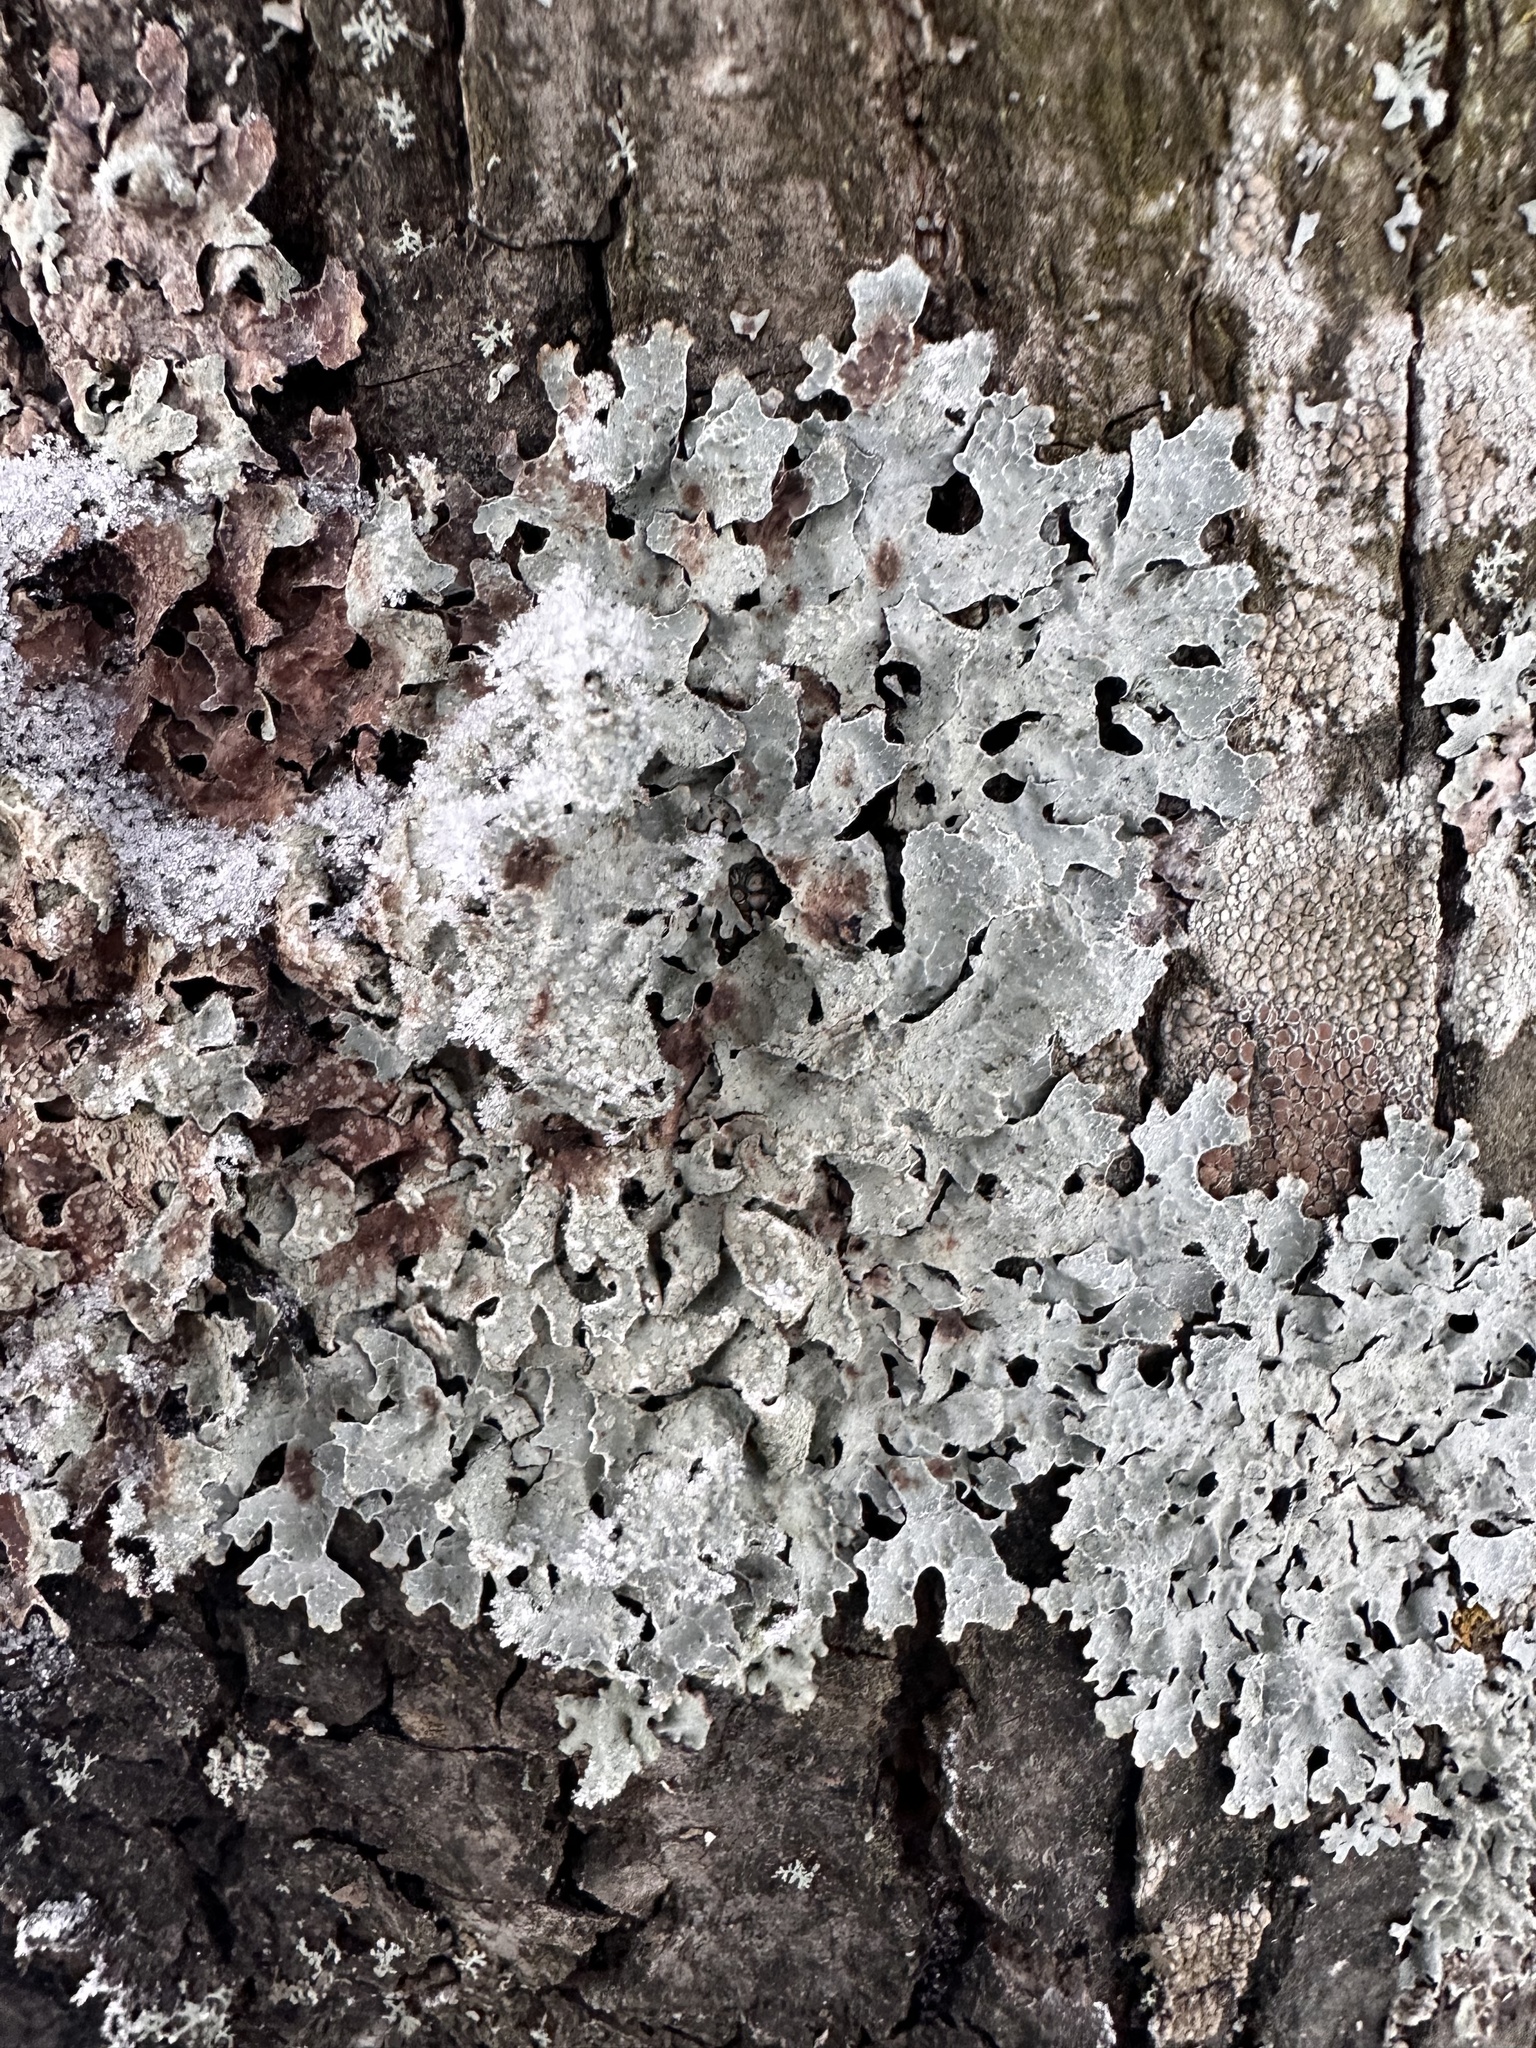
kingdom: Fungi
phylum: Ascomycota
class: Lecanoromycetes
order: Lecanorales
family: Parmeliaceae
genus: Parmelia
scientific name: Parmelia sulcata
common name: Netted shield lichen
